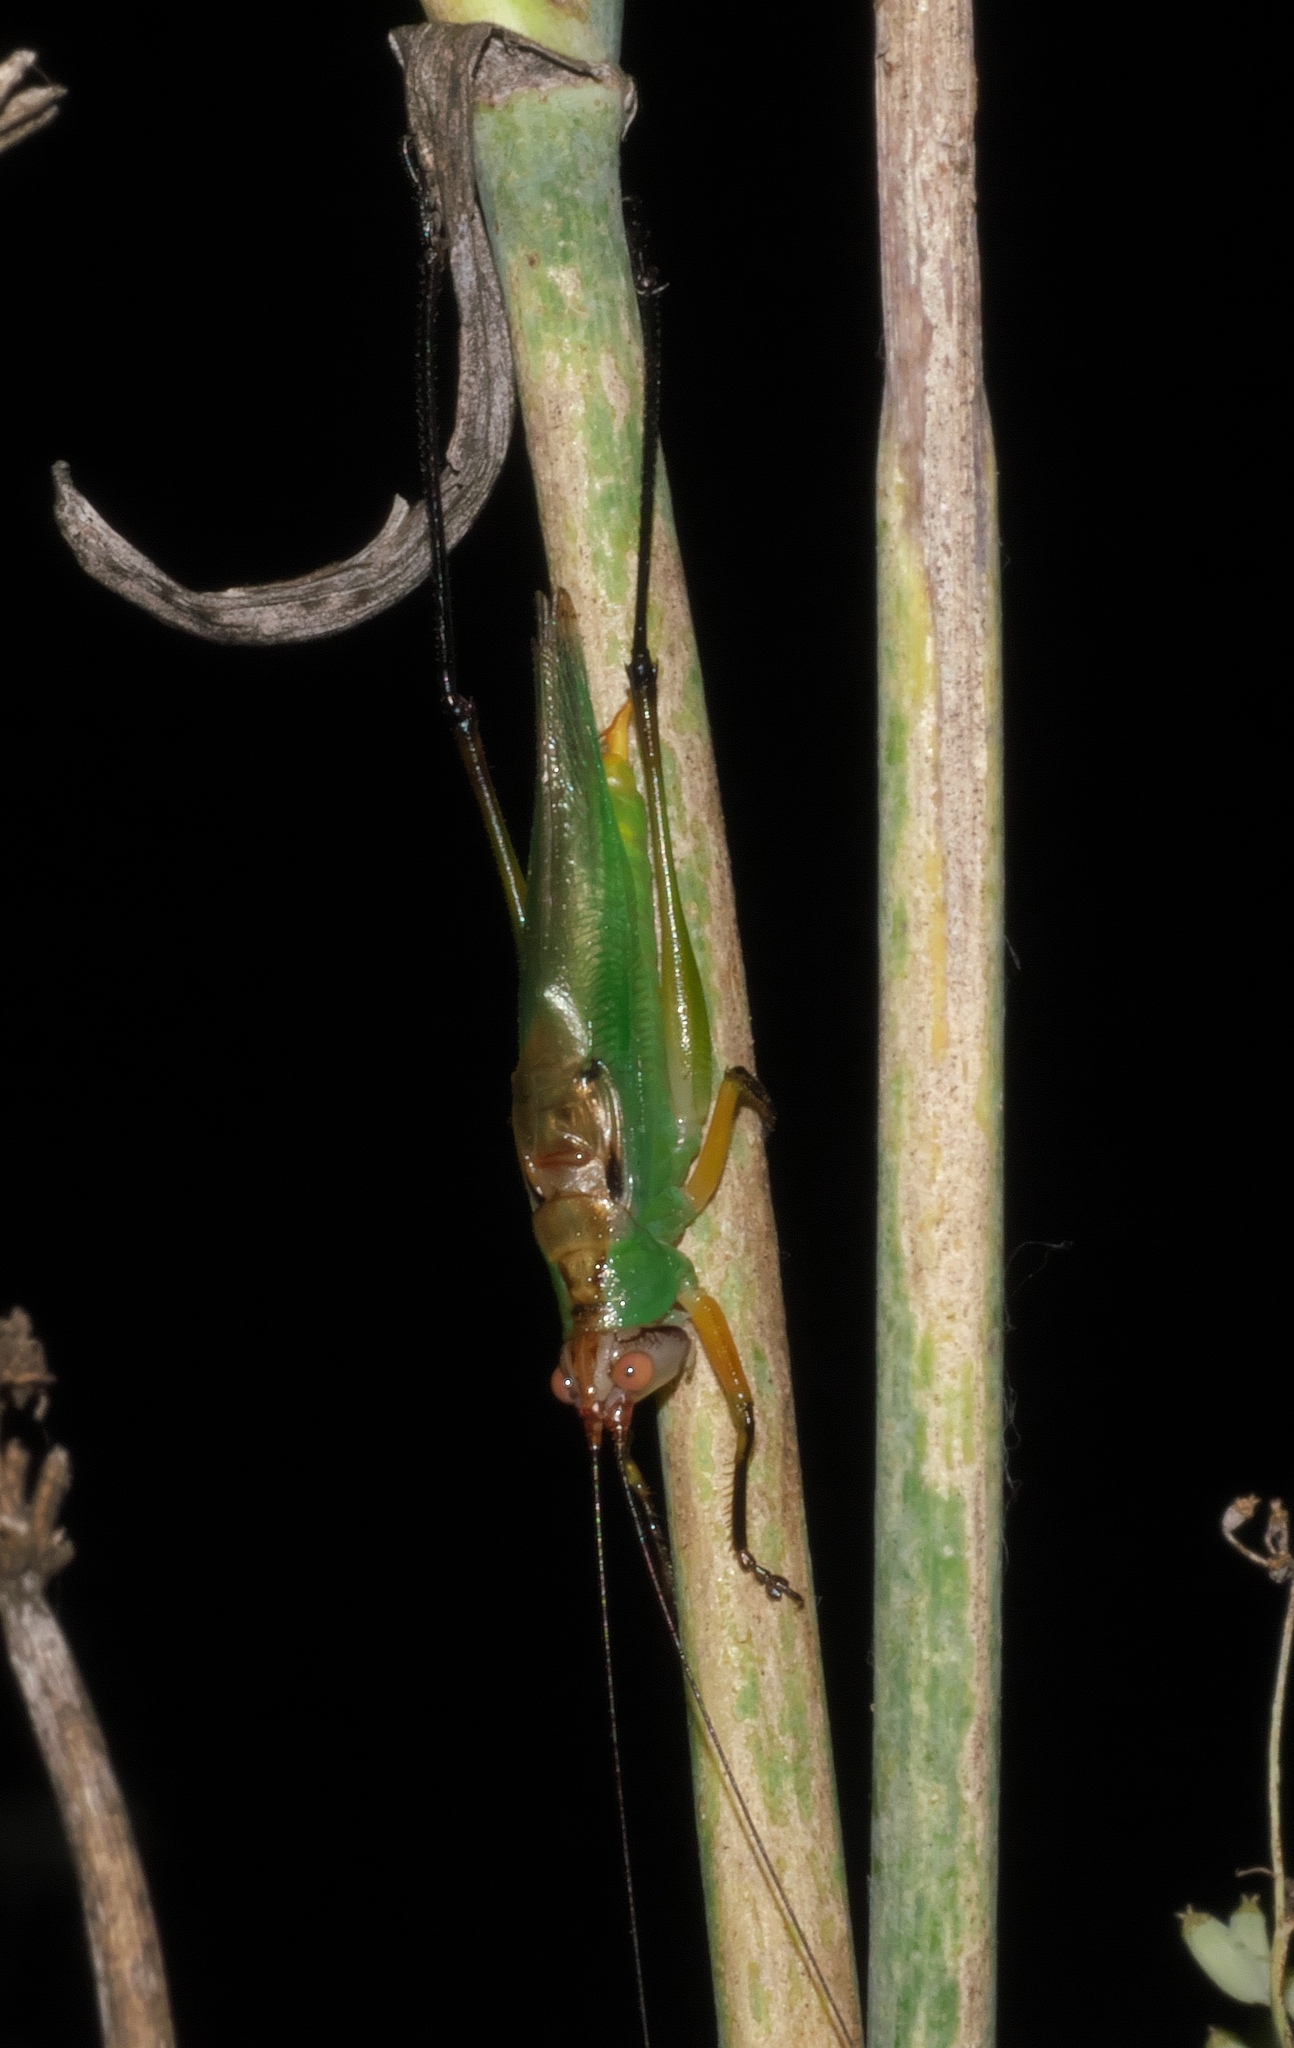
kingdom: Animalia
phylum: Arthropoda
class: Insecta
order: Orthoptera
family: Tettigoniidae
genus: Orchelimum
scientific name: Orchelimum nigripes
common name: Black-legged meadow katydid
